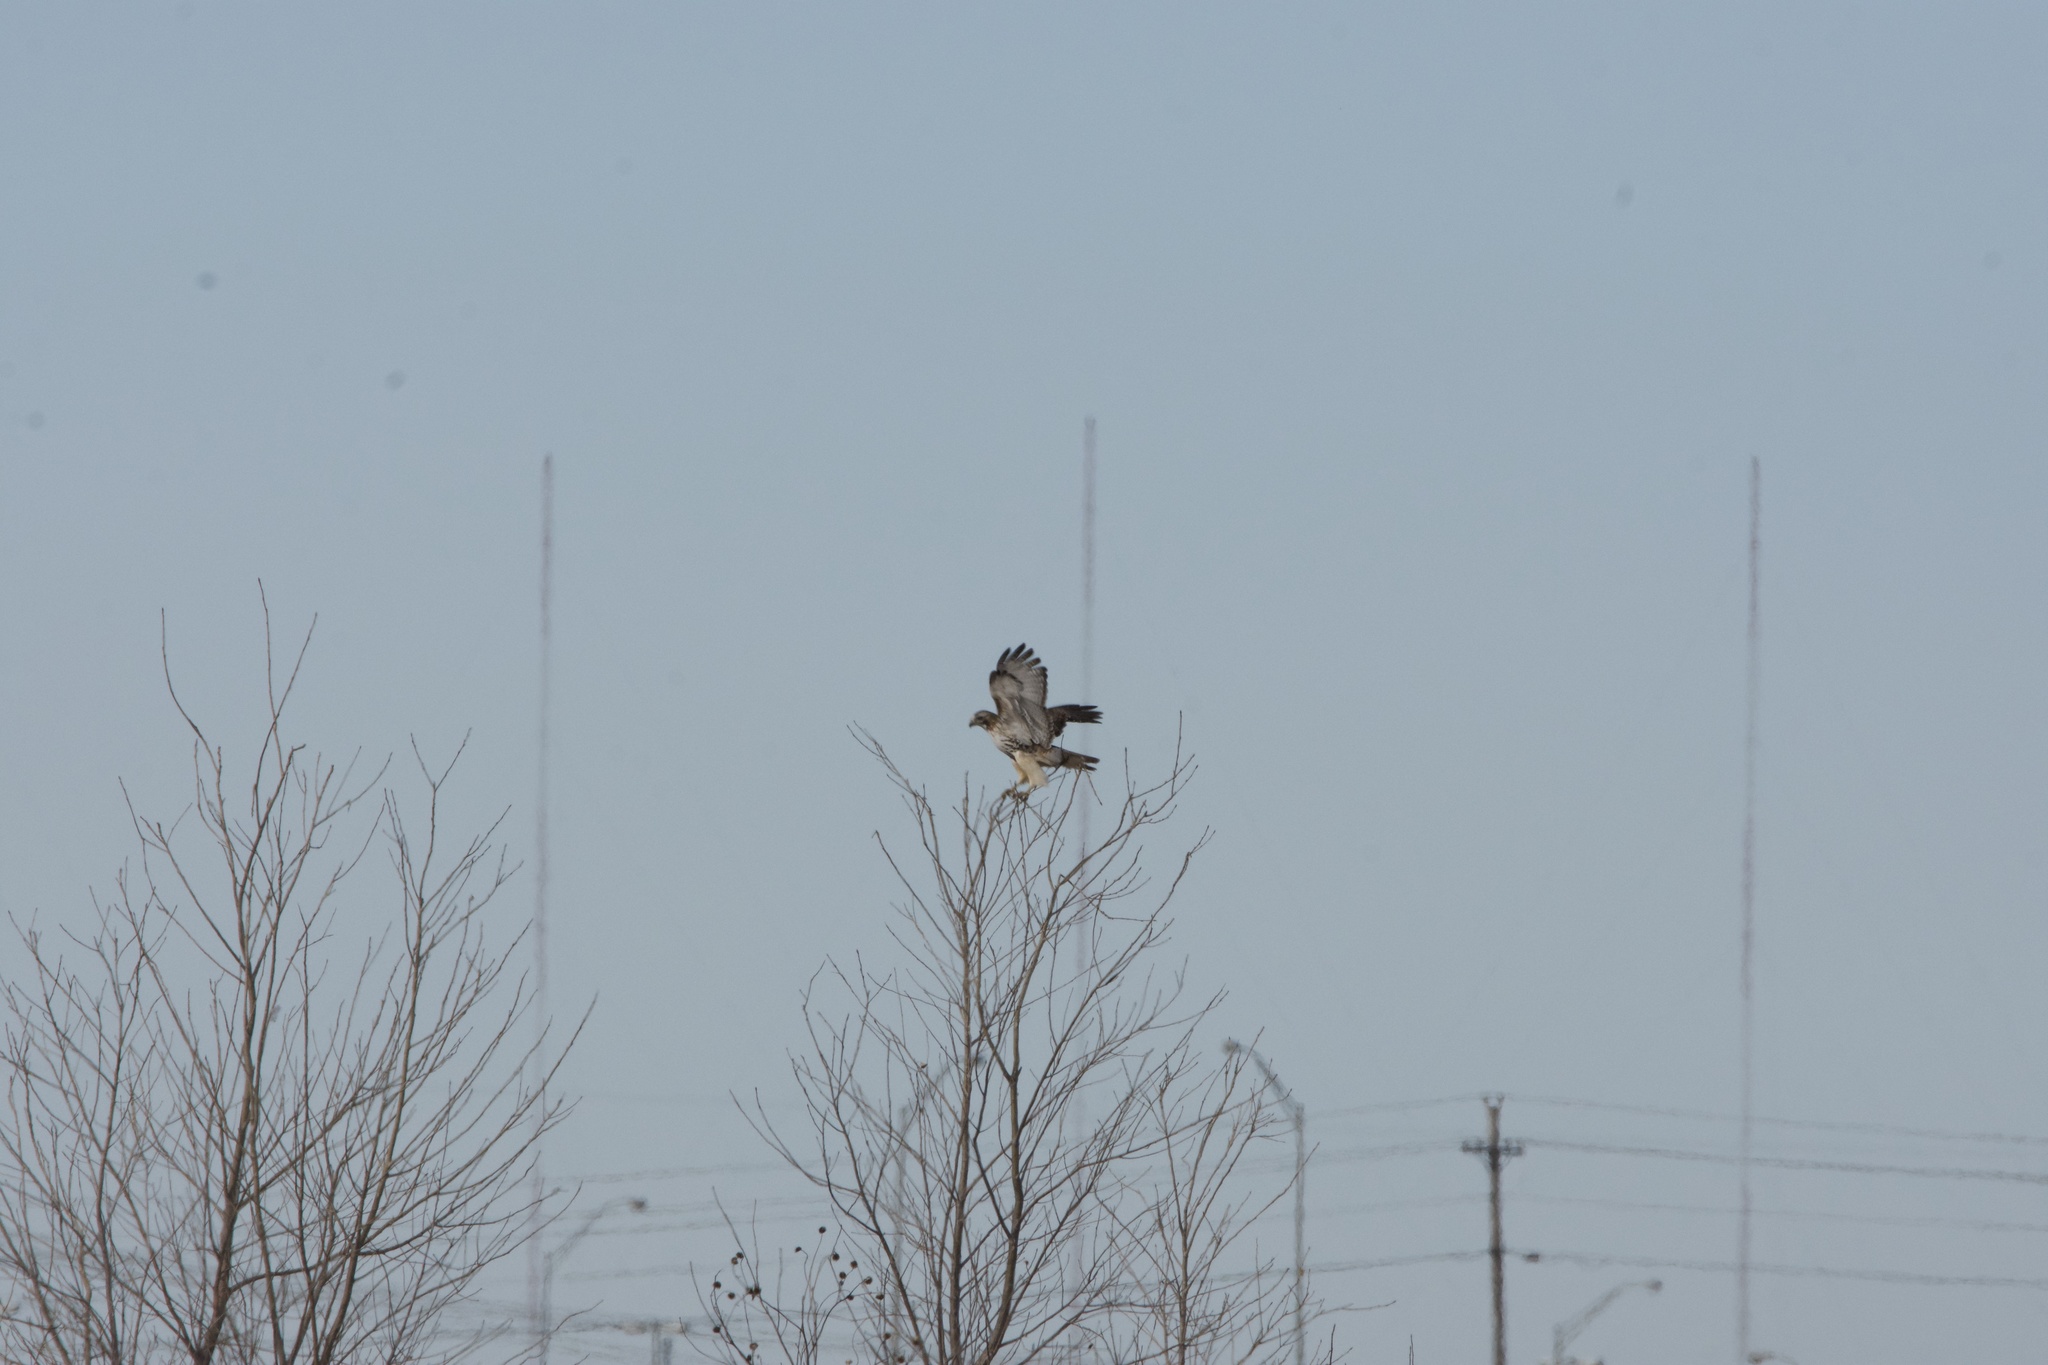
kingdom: Animalia
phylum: Chordata
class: Aves
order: Accipitriformes
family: Accipitridae
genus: Buteo
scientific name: Buteo jamaicensis
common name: Red-tailed hawk
